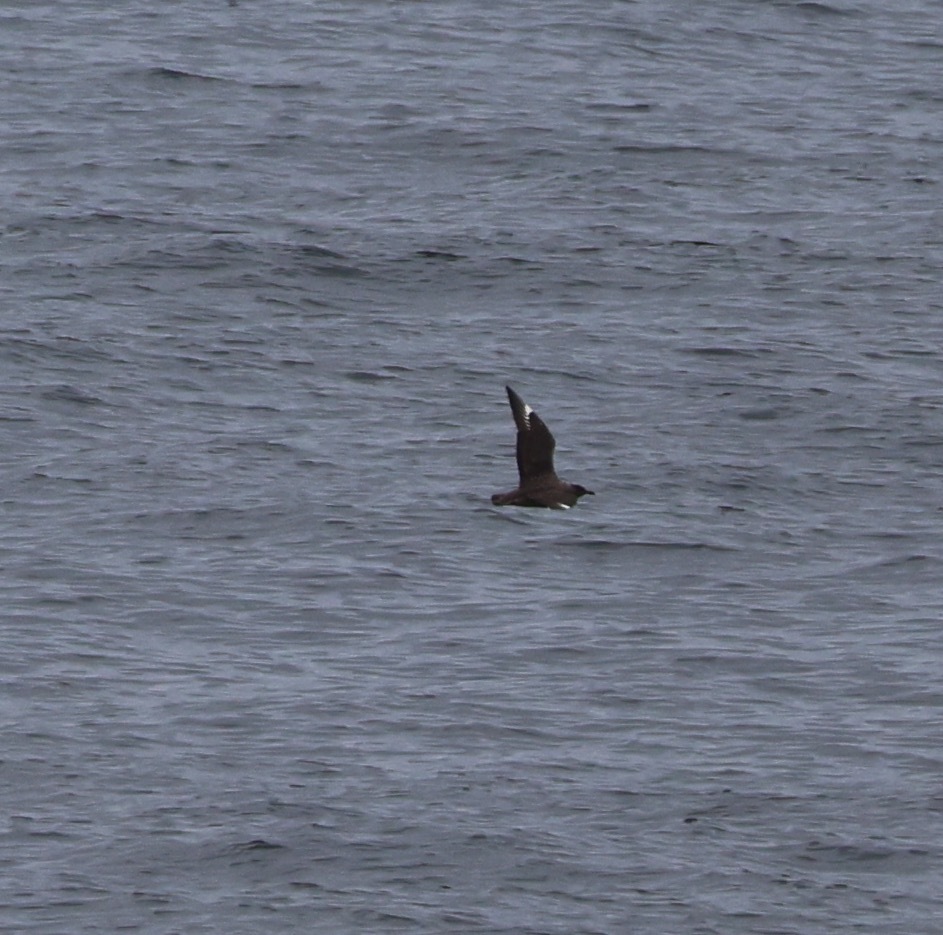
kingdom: Animalia
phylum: Chordata
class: Aves
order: Charadriiformes
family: Stercorariidae
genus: Stercorarius
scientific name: Stercorarius skua
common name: Great skua
